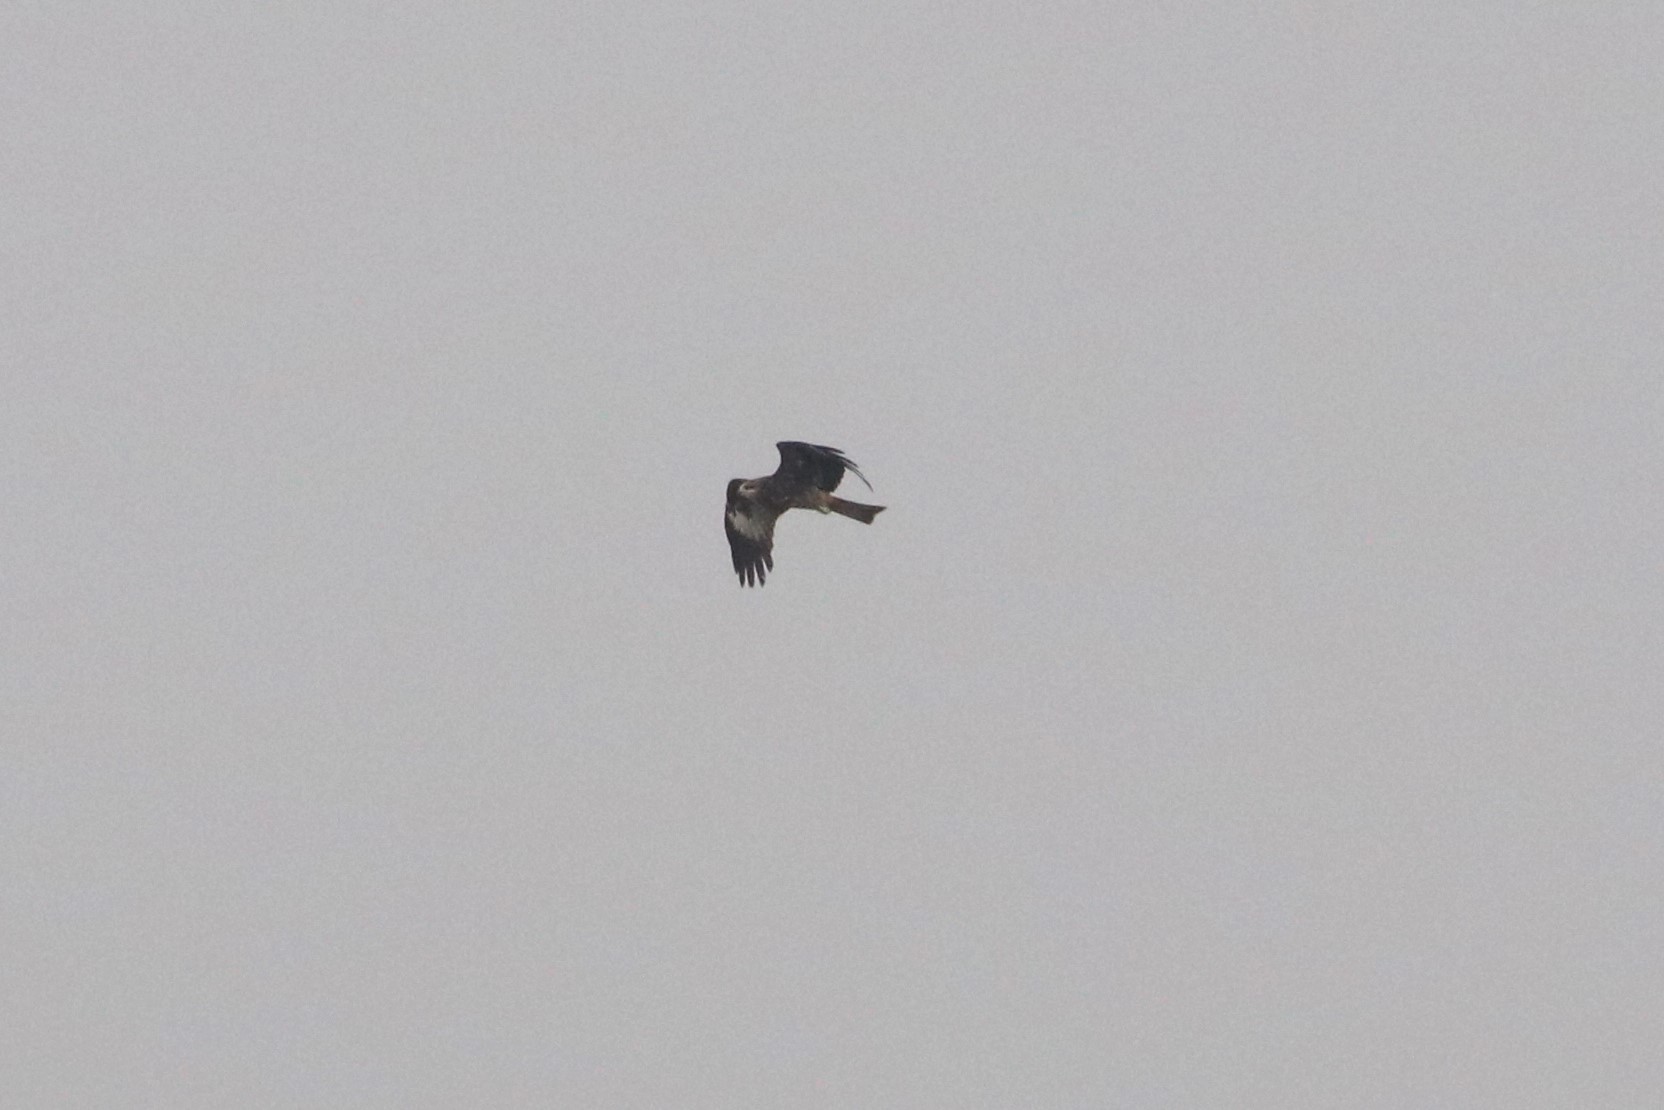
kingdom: Animalia
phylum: Chordata
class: Aves
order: Accipitriformes
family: Accipitridae
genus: Milvus
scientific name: Milvus migrans
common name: Black kite
